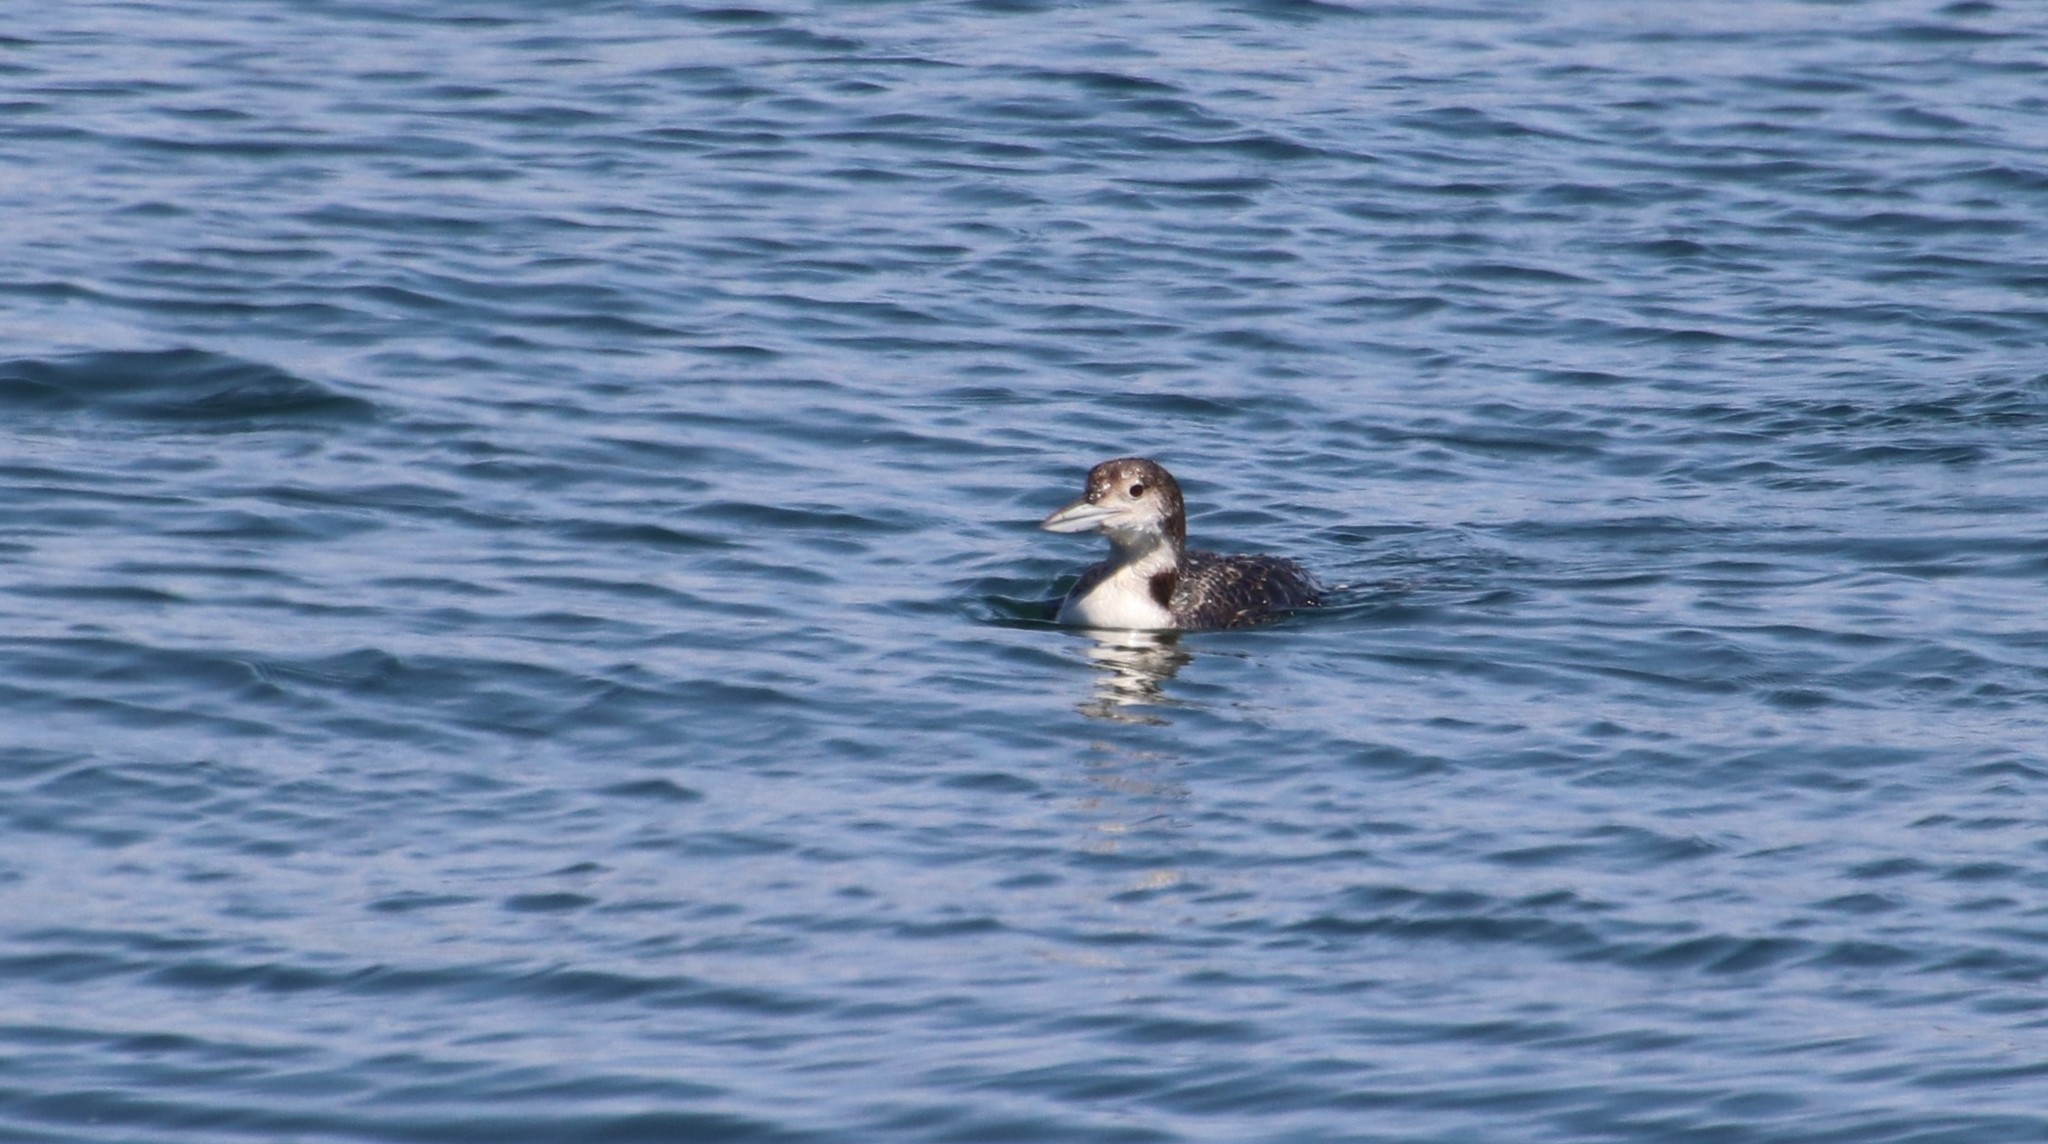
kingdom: Animalia
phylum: Chordata
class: Aves
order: Gaviiformes
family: Gaviidae
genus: Gavia
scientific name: Gavia immer
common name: Common loon
